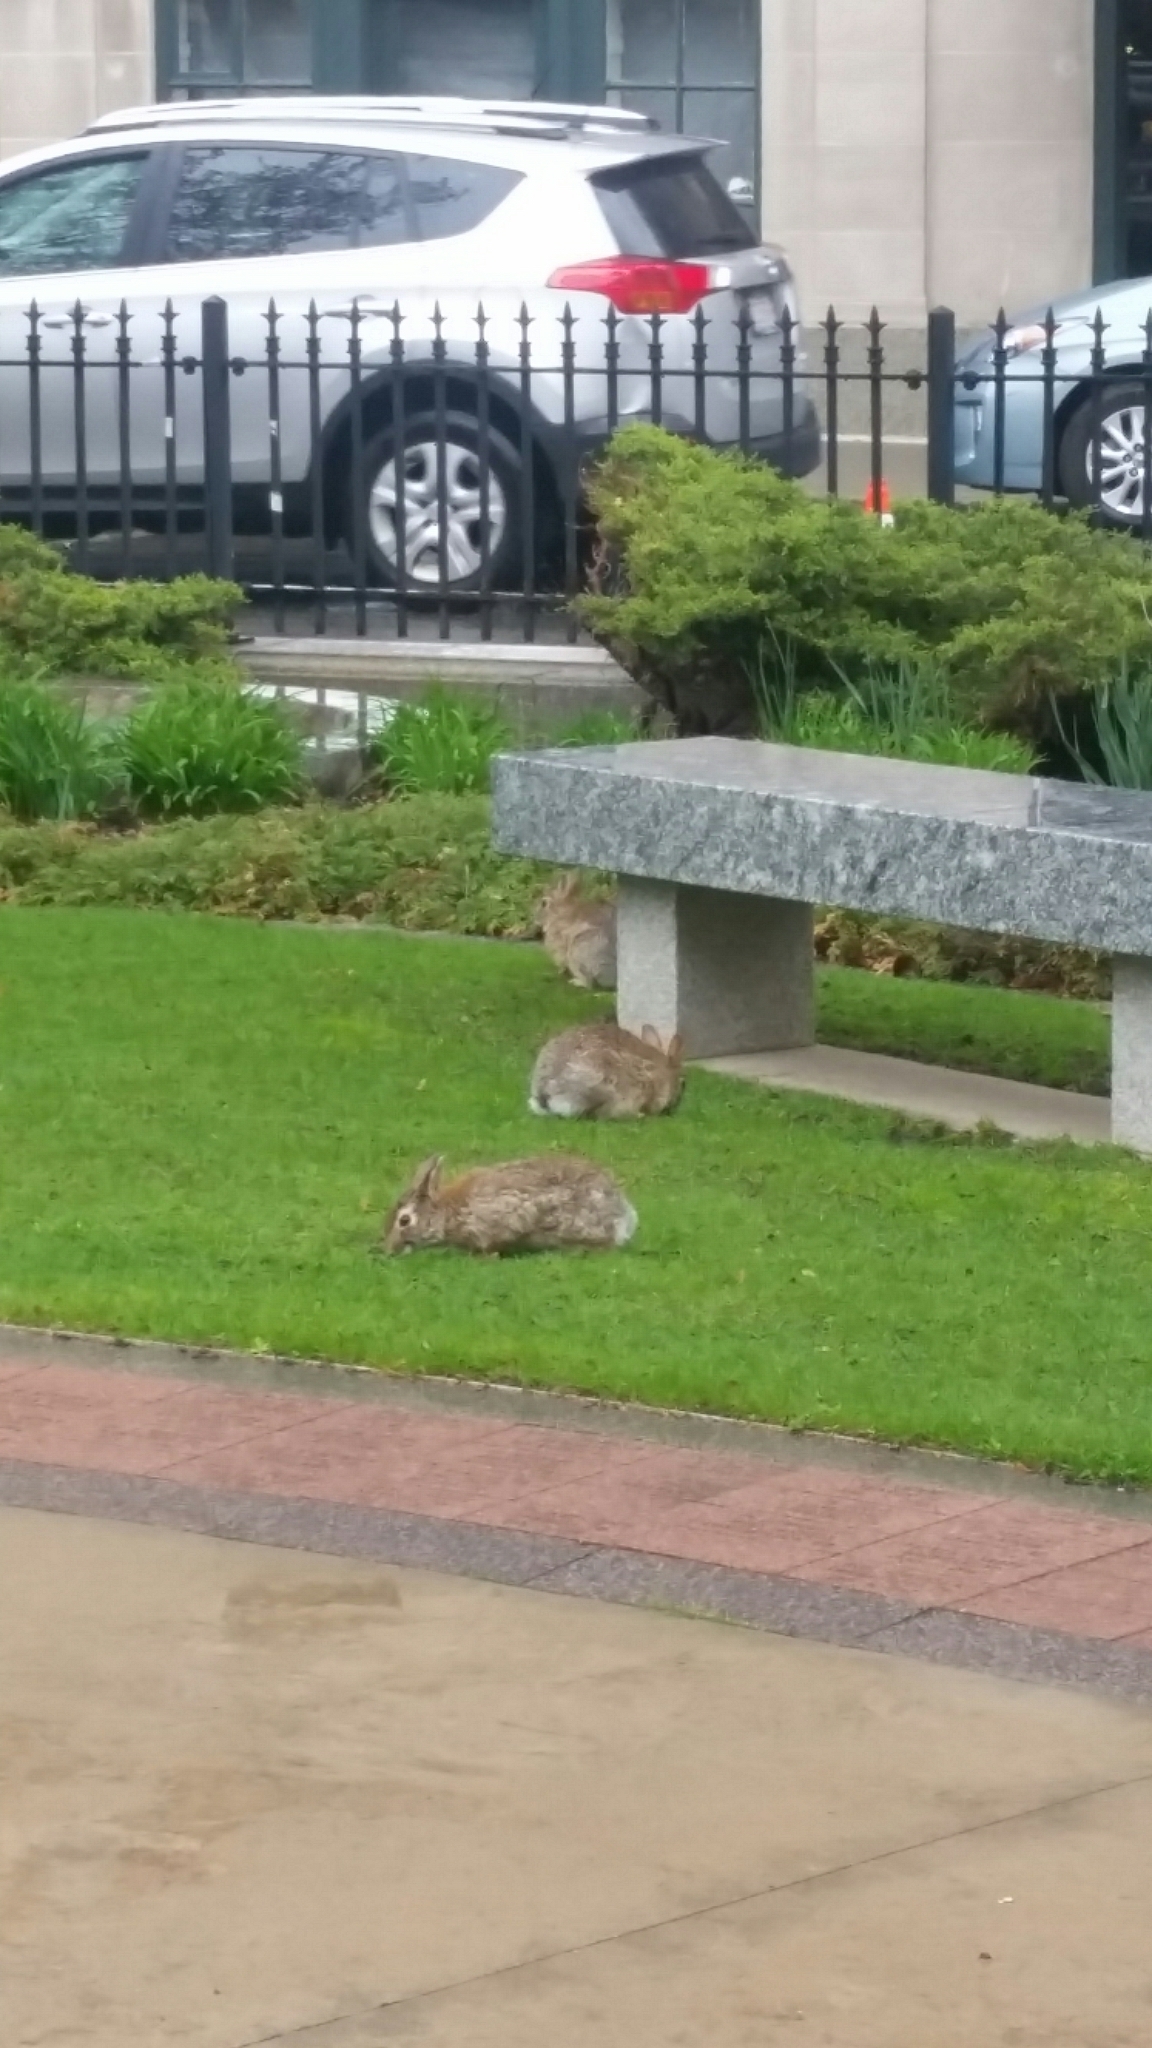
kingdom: Animalia
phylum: Chordata
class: Mammalia
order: Lagomorpha
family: Leporidae
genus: Sylvilagus
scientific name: Sylvilagus floridanus
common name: Eastern cottontail
